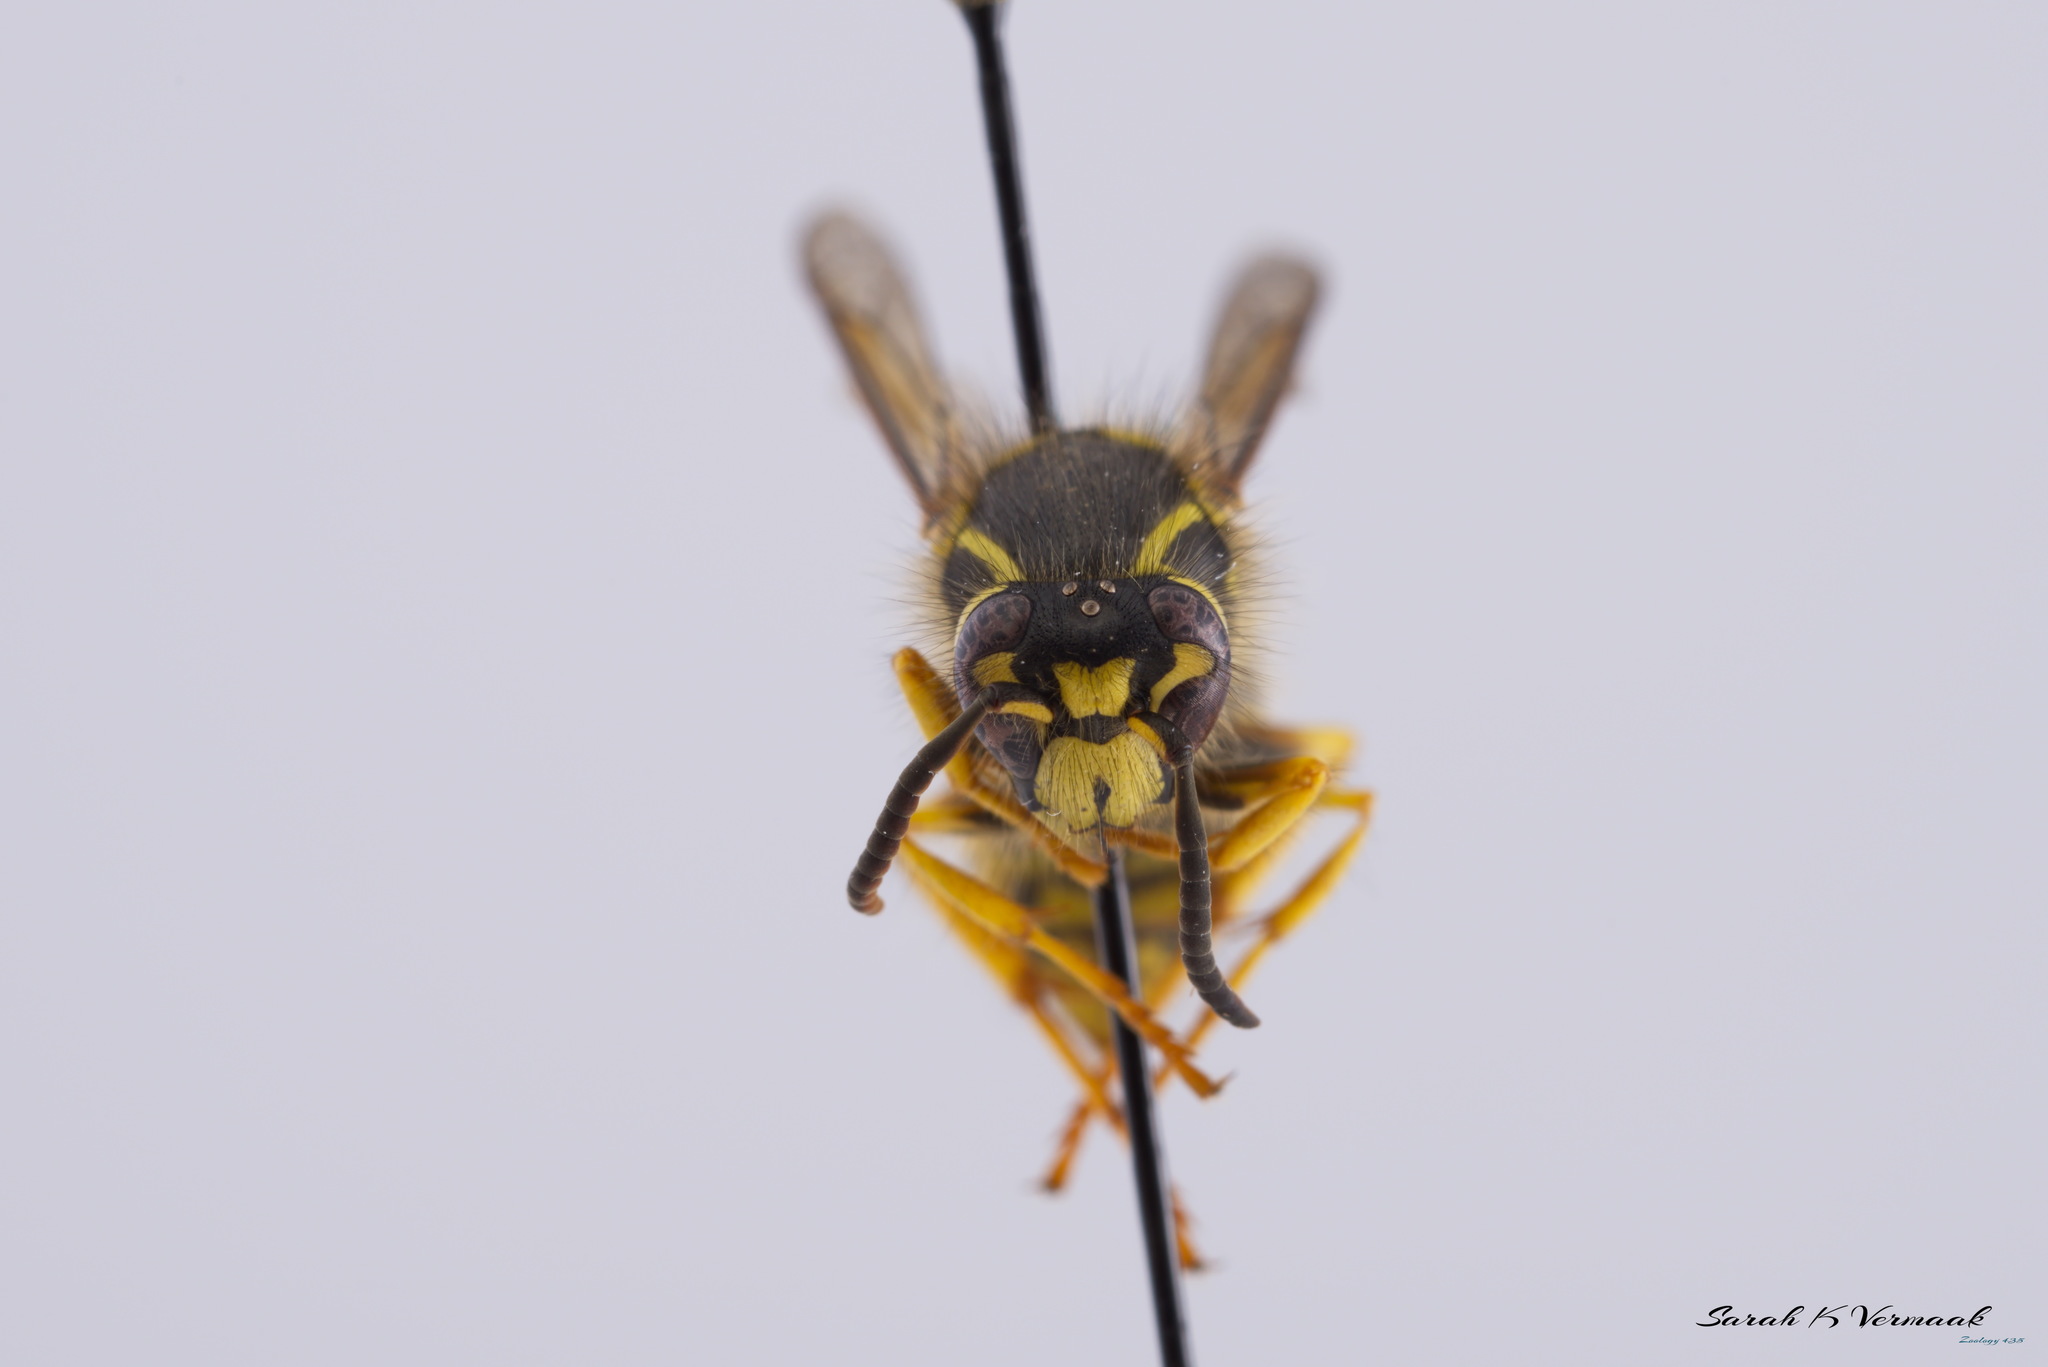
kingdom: Animalia
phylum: Arthropoda
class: Insecta
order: Hymenoptera
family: Vespidae
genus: Dolichovespula
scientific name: Dolichovespula arenaria
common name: Aerial yellowjacket
